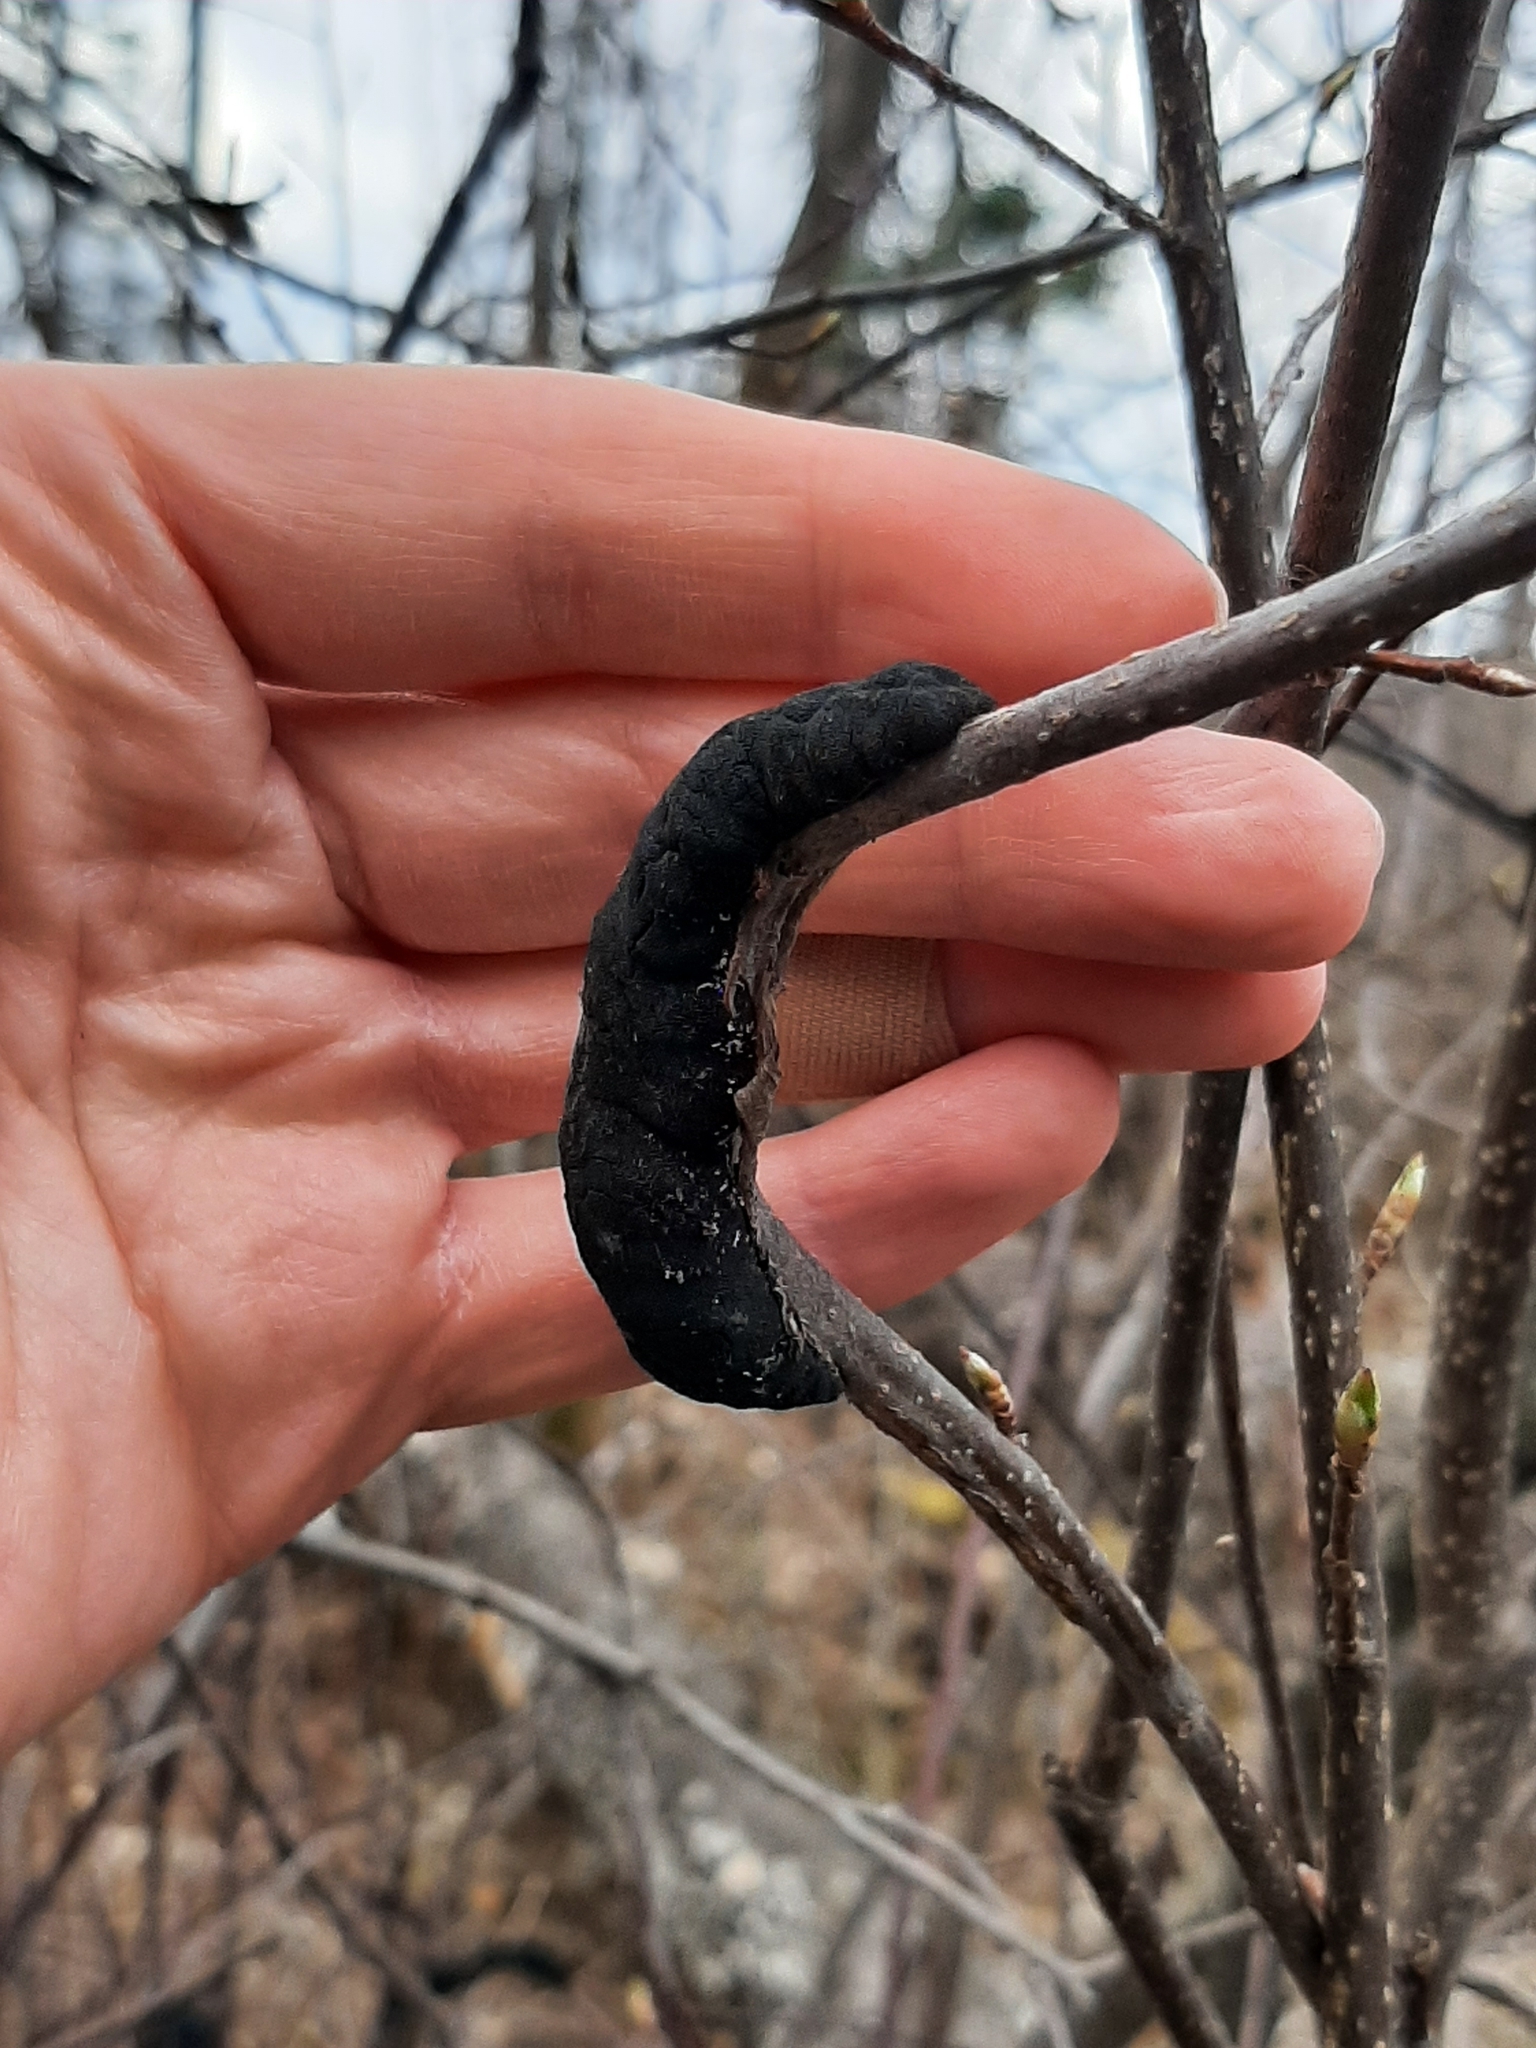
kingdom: Fungi
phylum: Ascomycota
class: Dothideomycetes
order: Venturiales
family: Venturiaceae
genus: Apiosporina
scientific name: Apiosporina morbosa
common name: Black knot
